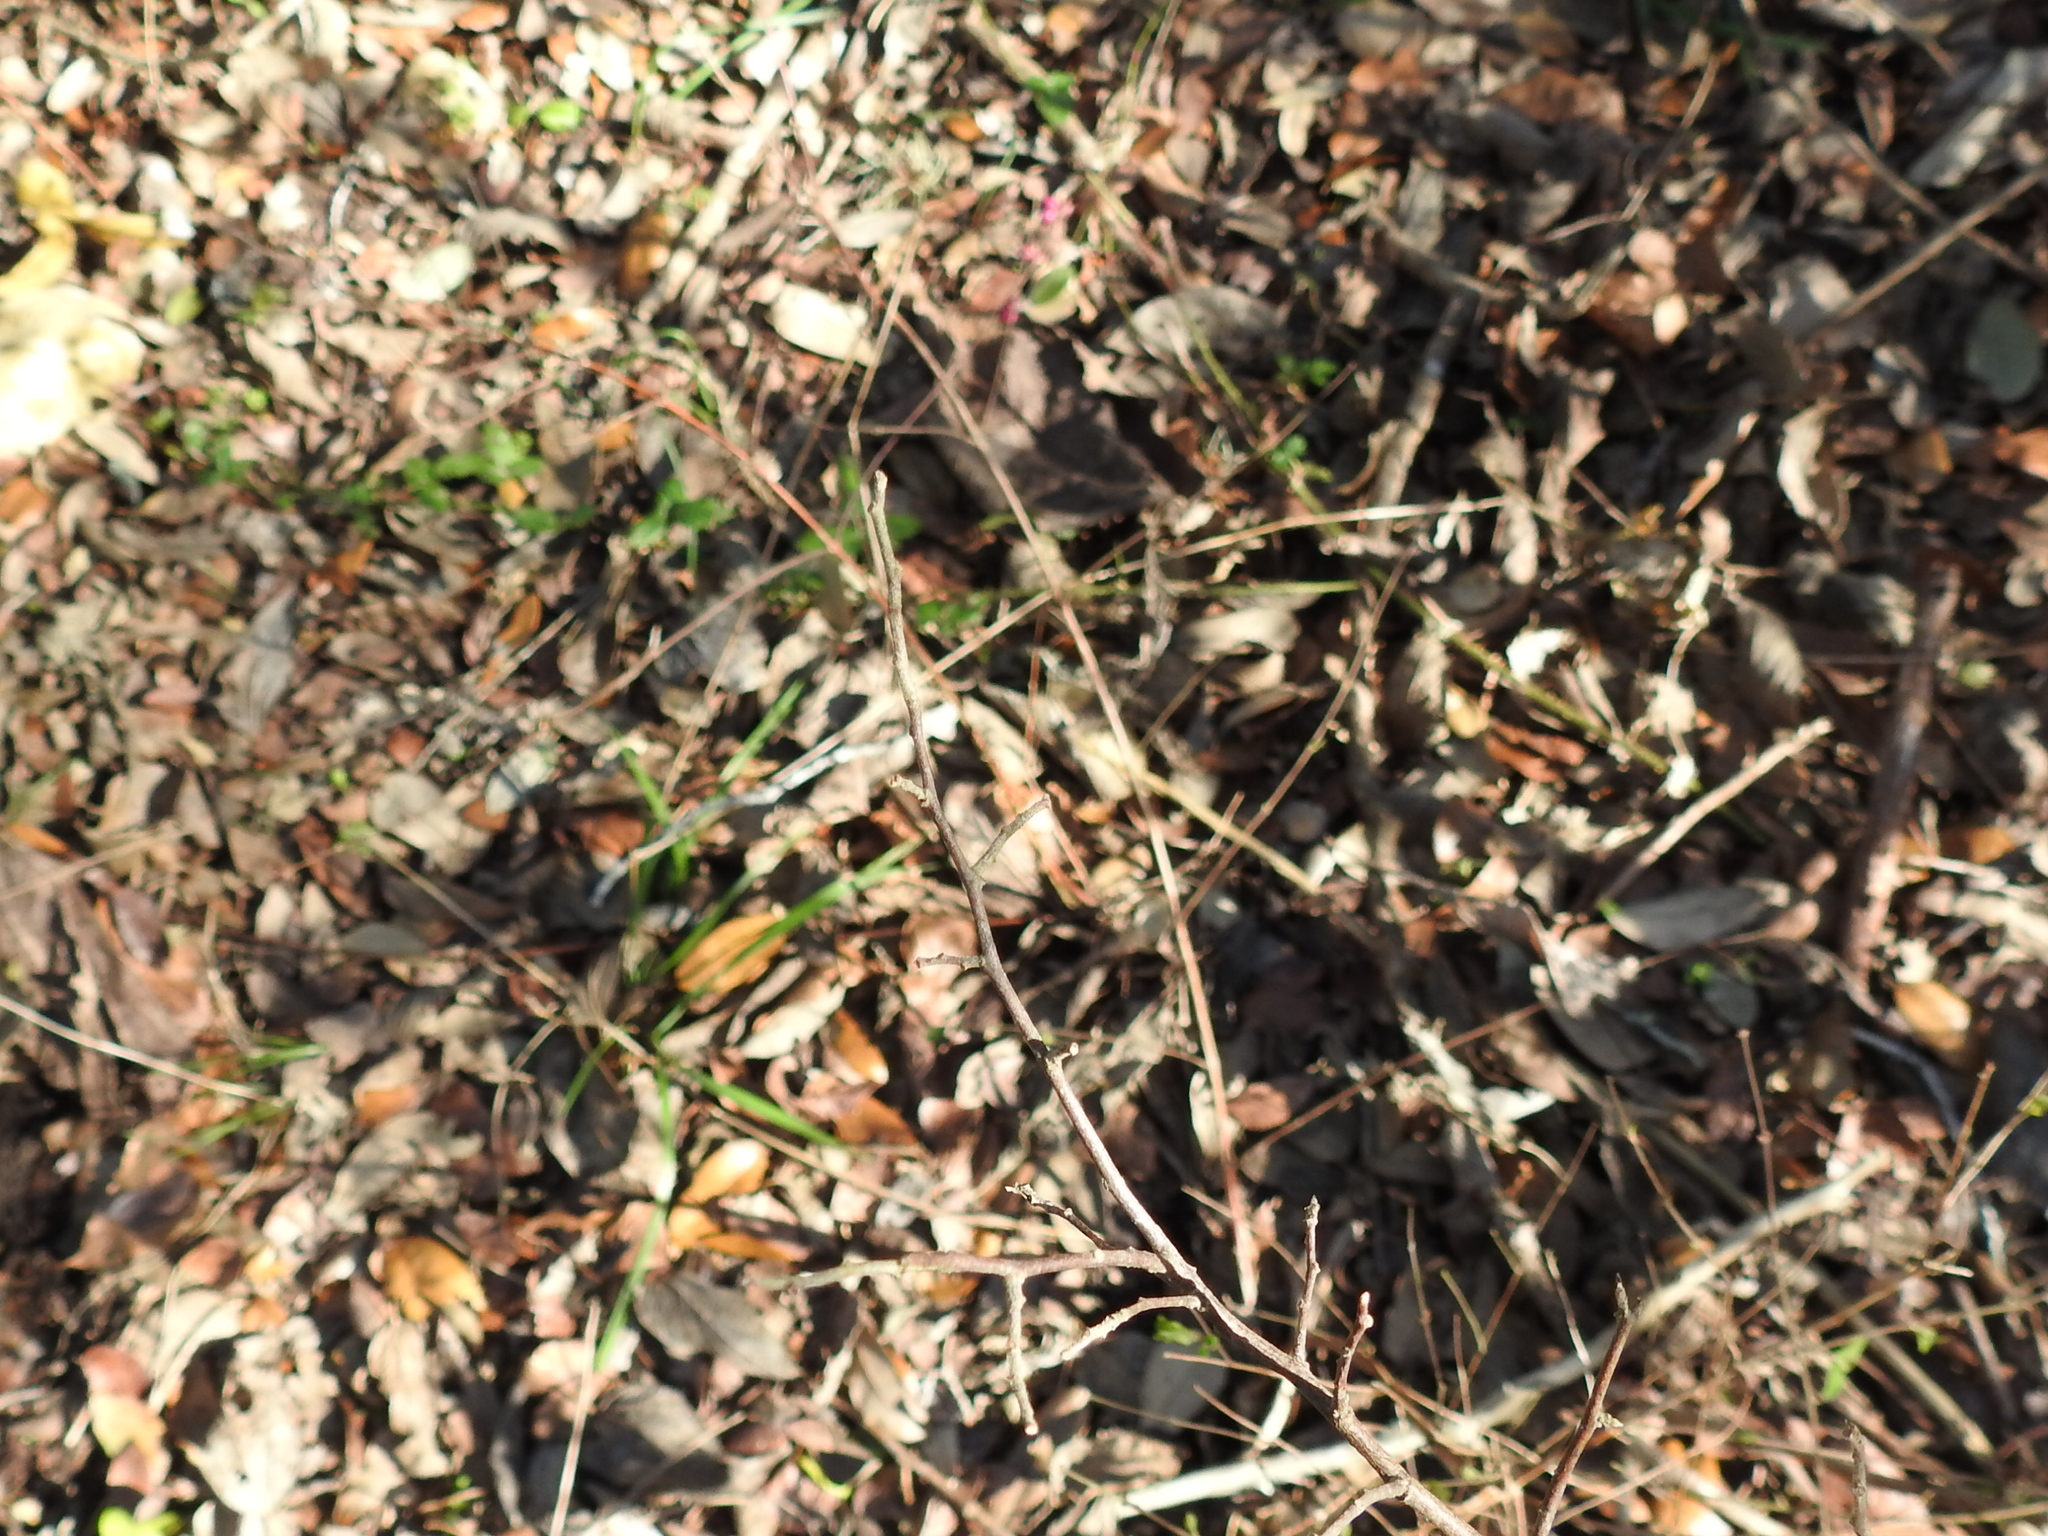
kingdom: Plantae
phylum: Tracheophyta
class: Magnoliopsida
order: Dipsacales
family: Caprifoliaceae
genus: Symphoricarpos
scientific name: Symphoricarpos orbiculatus
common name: Coralberry
